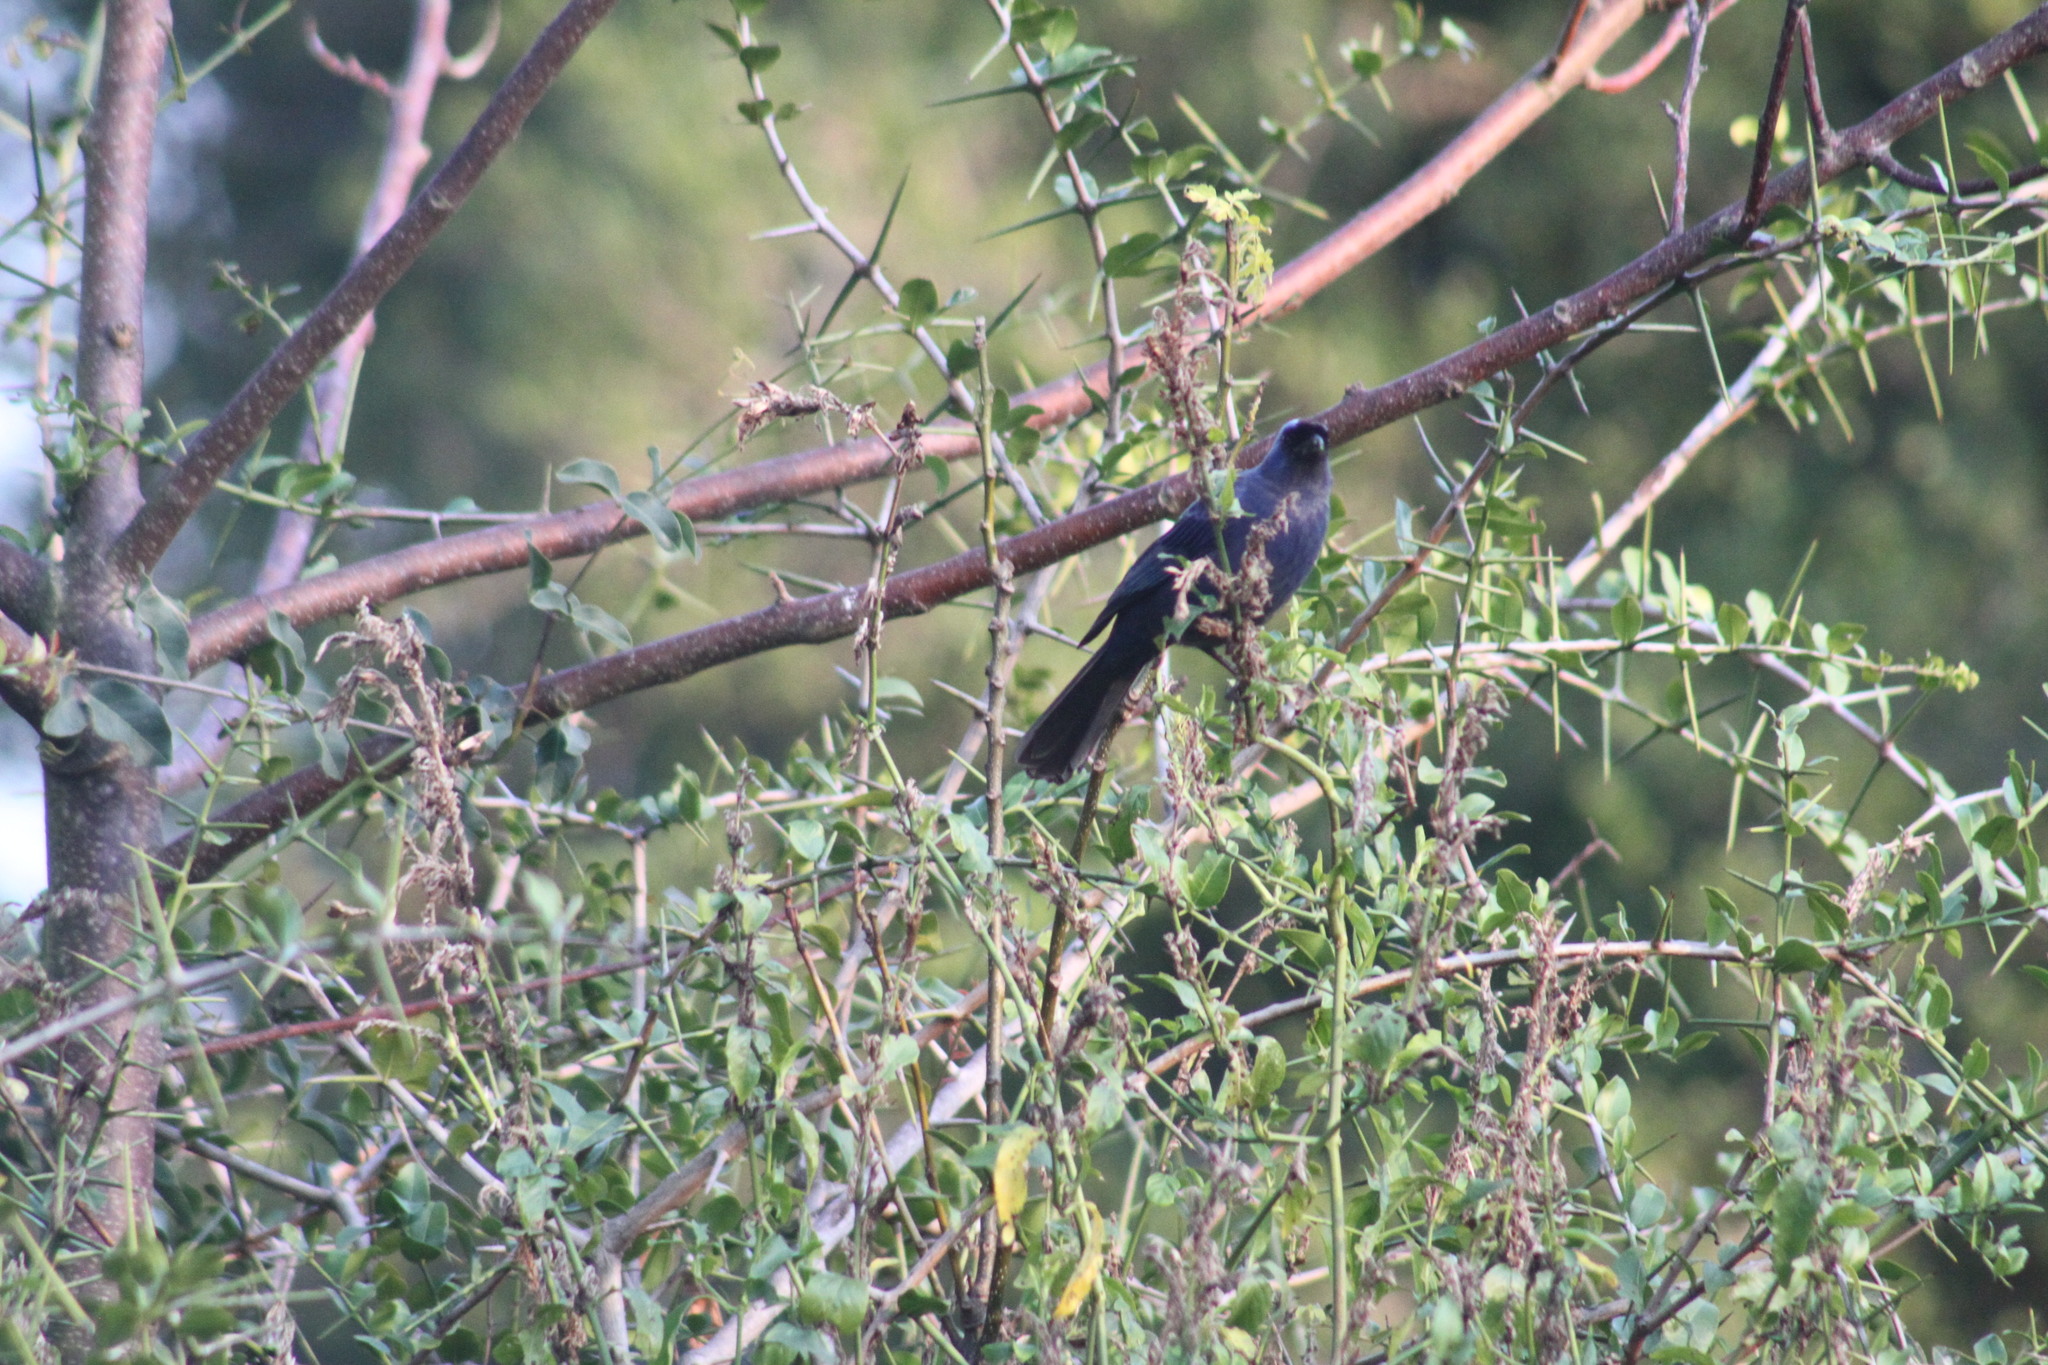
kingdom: Animalia
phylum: Chordata
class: Aves
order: Passeriformes
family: Thraupidae
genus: Stephanophorus
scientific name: Stephanophorus diadematus
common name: Diademed tanager
